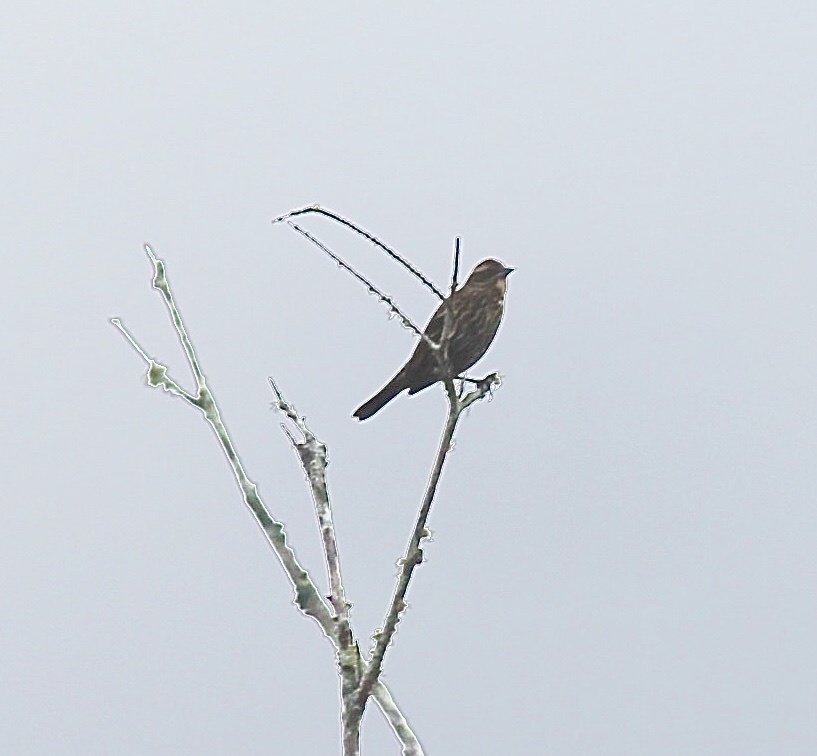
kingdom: Animalia
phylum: Chordata
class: Aves
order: Passeriformes
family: Icteridae
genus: Agelaius
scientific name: Agelaius phoeniceus
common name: Red-winged blackbird
